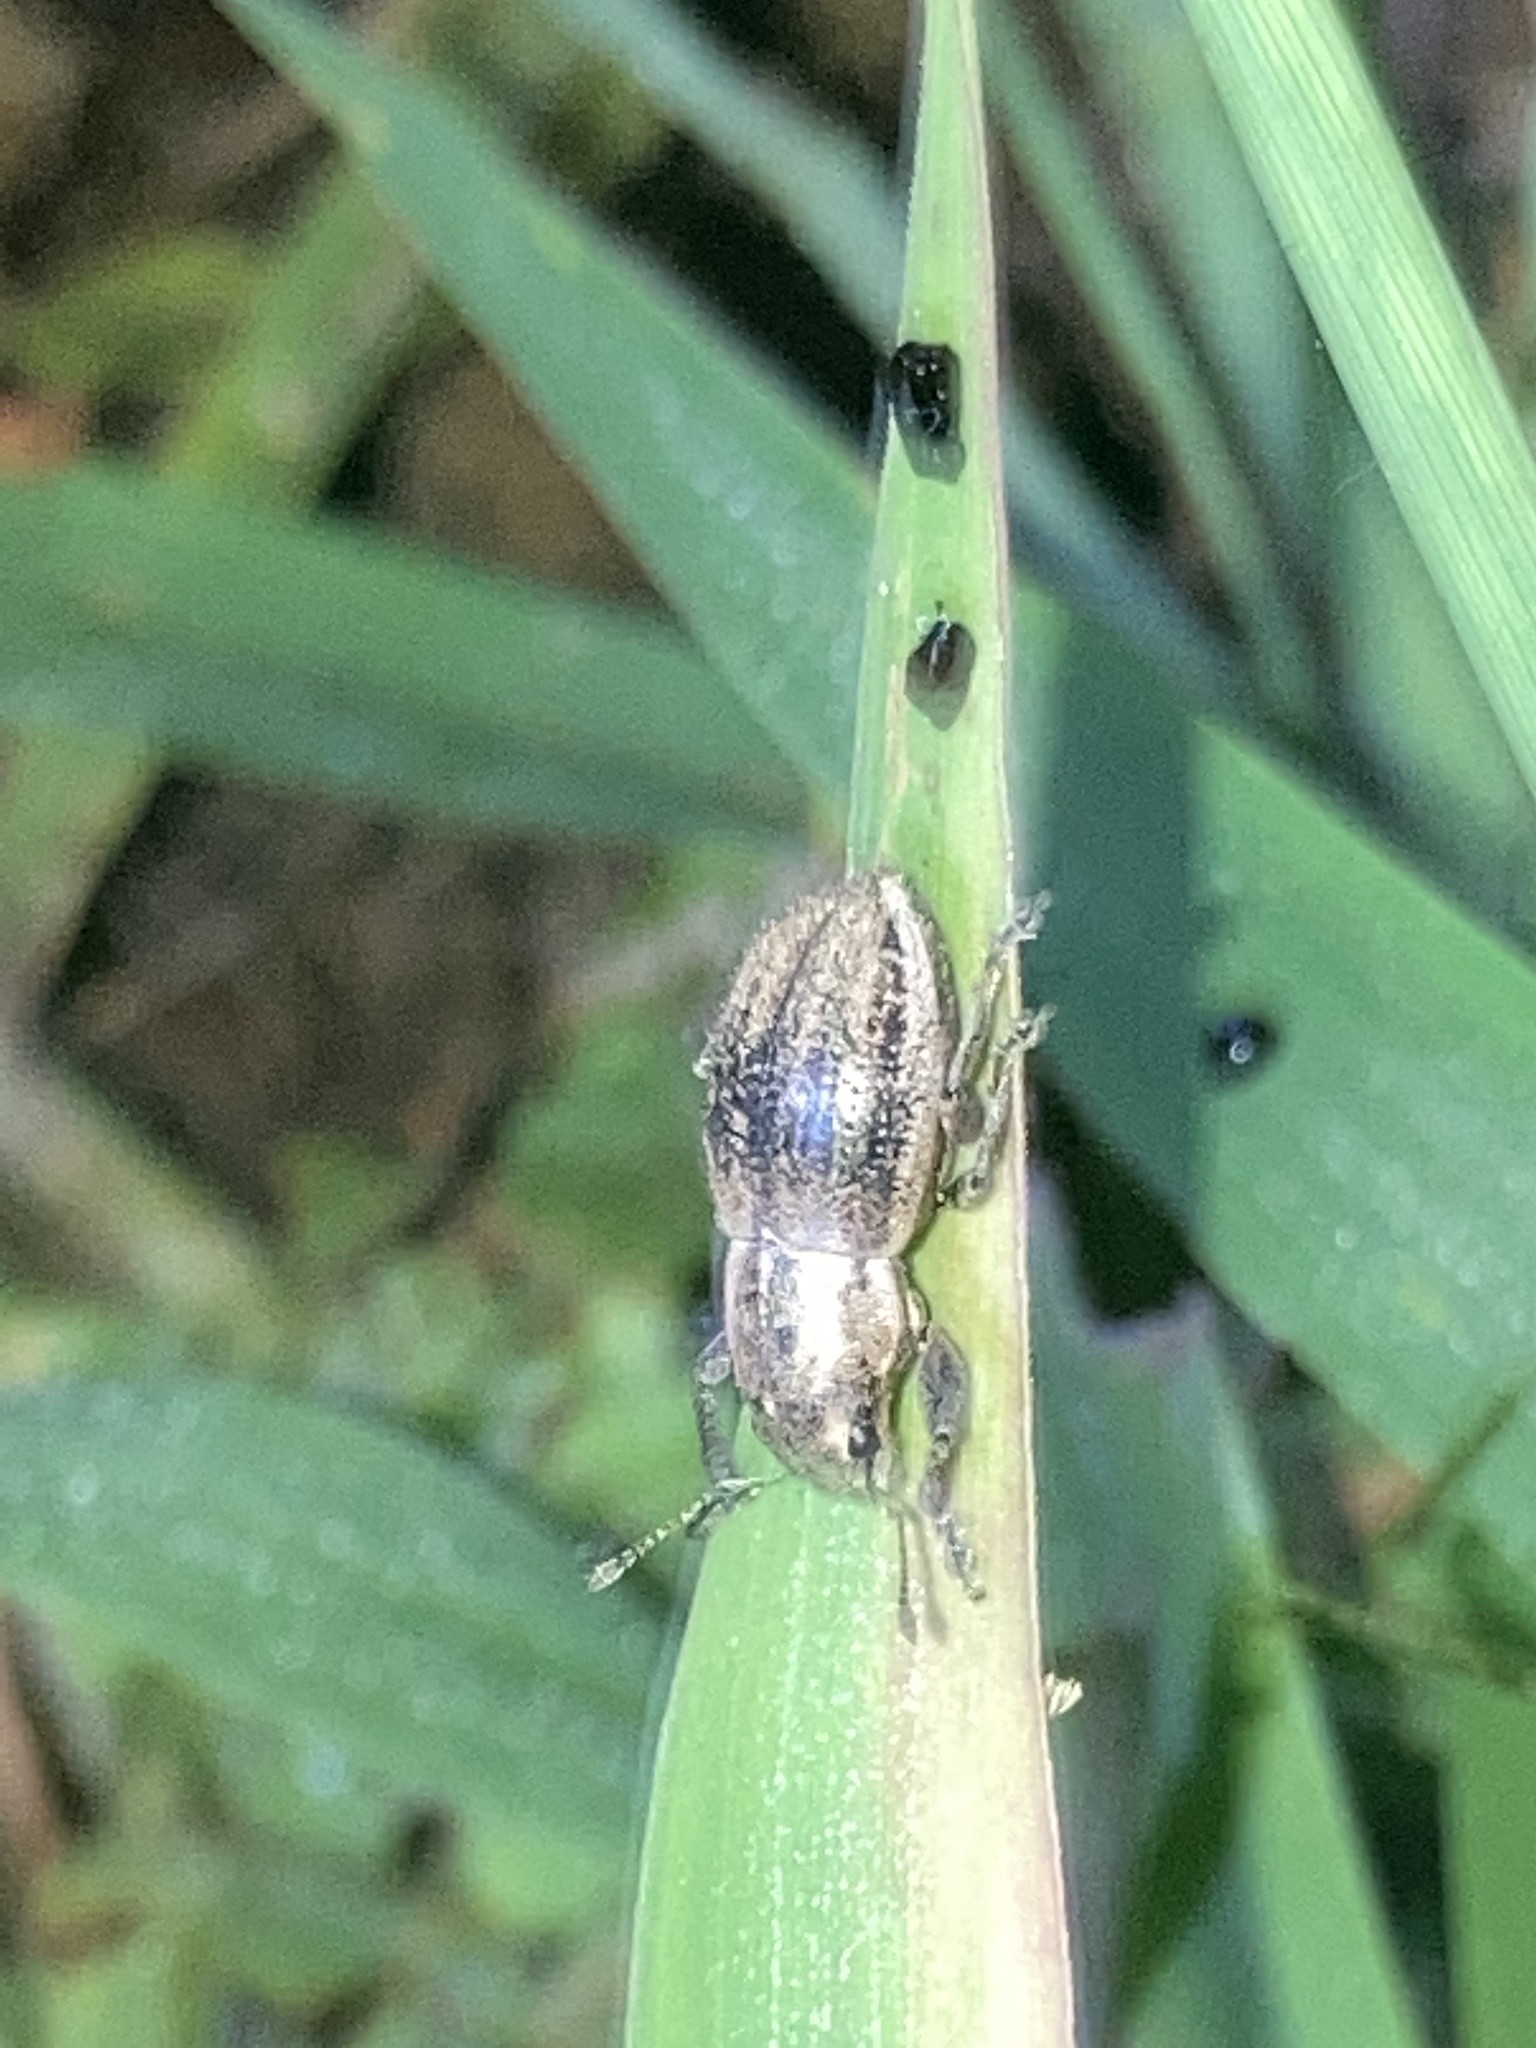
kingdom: Animalia
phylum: Arthropoda
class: Insecta
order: Coleoptera
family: Curculionidae
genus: Naupactus
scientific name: Naupactus peregrinus
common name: Whitefringed beetle
